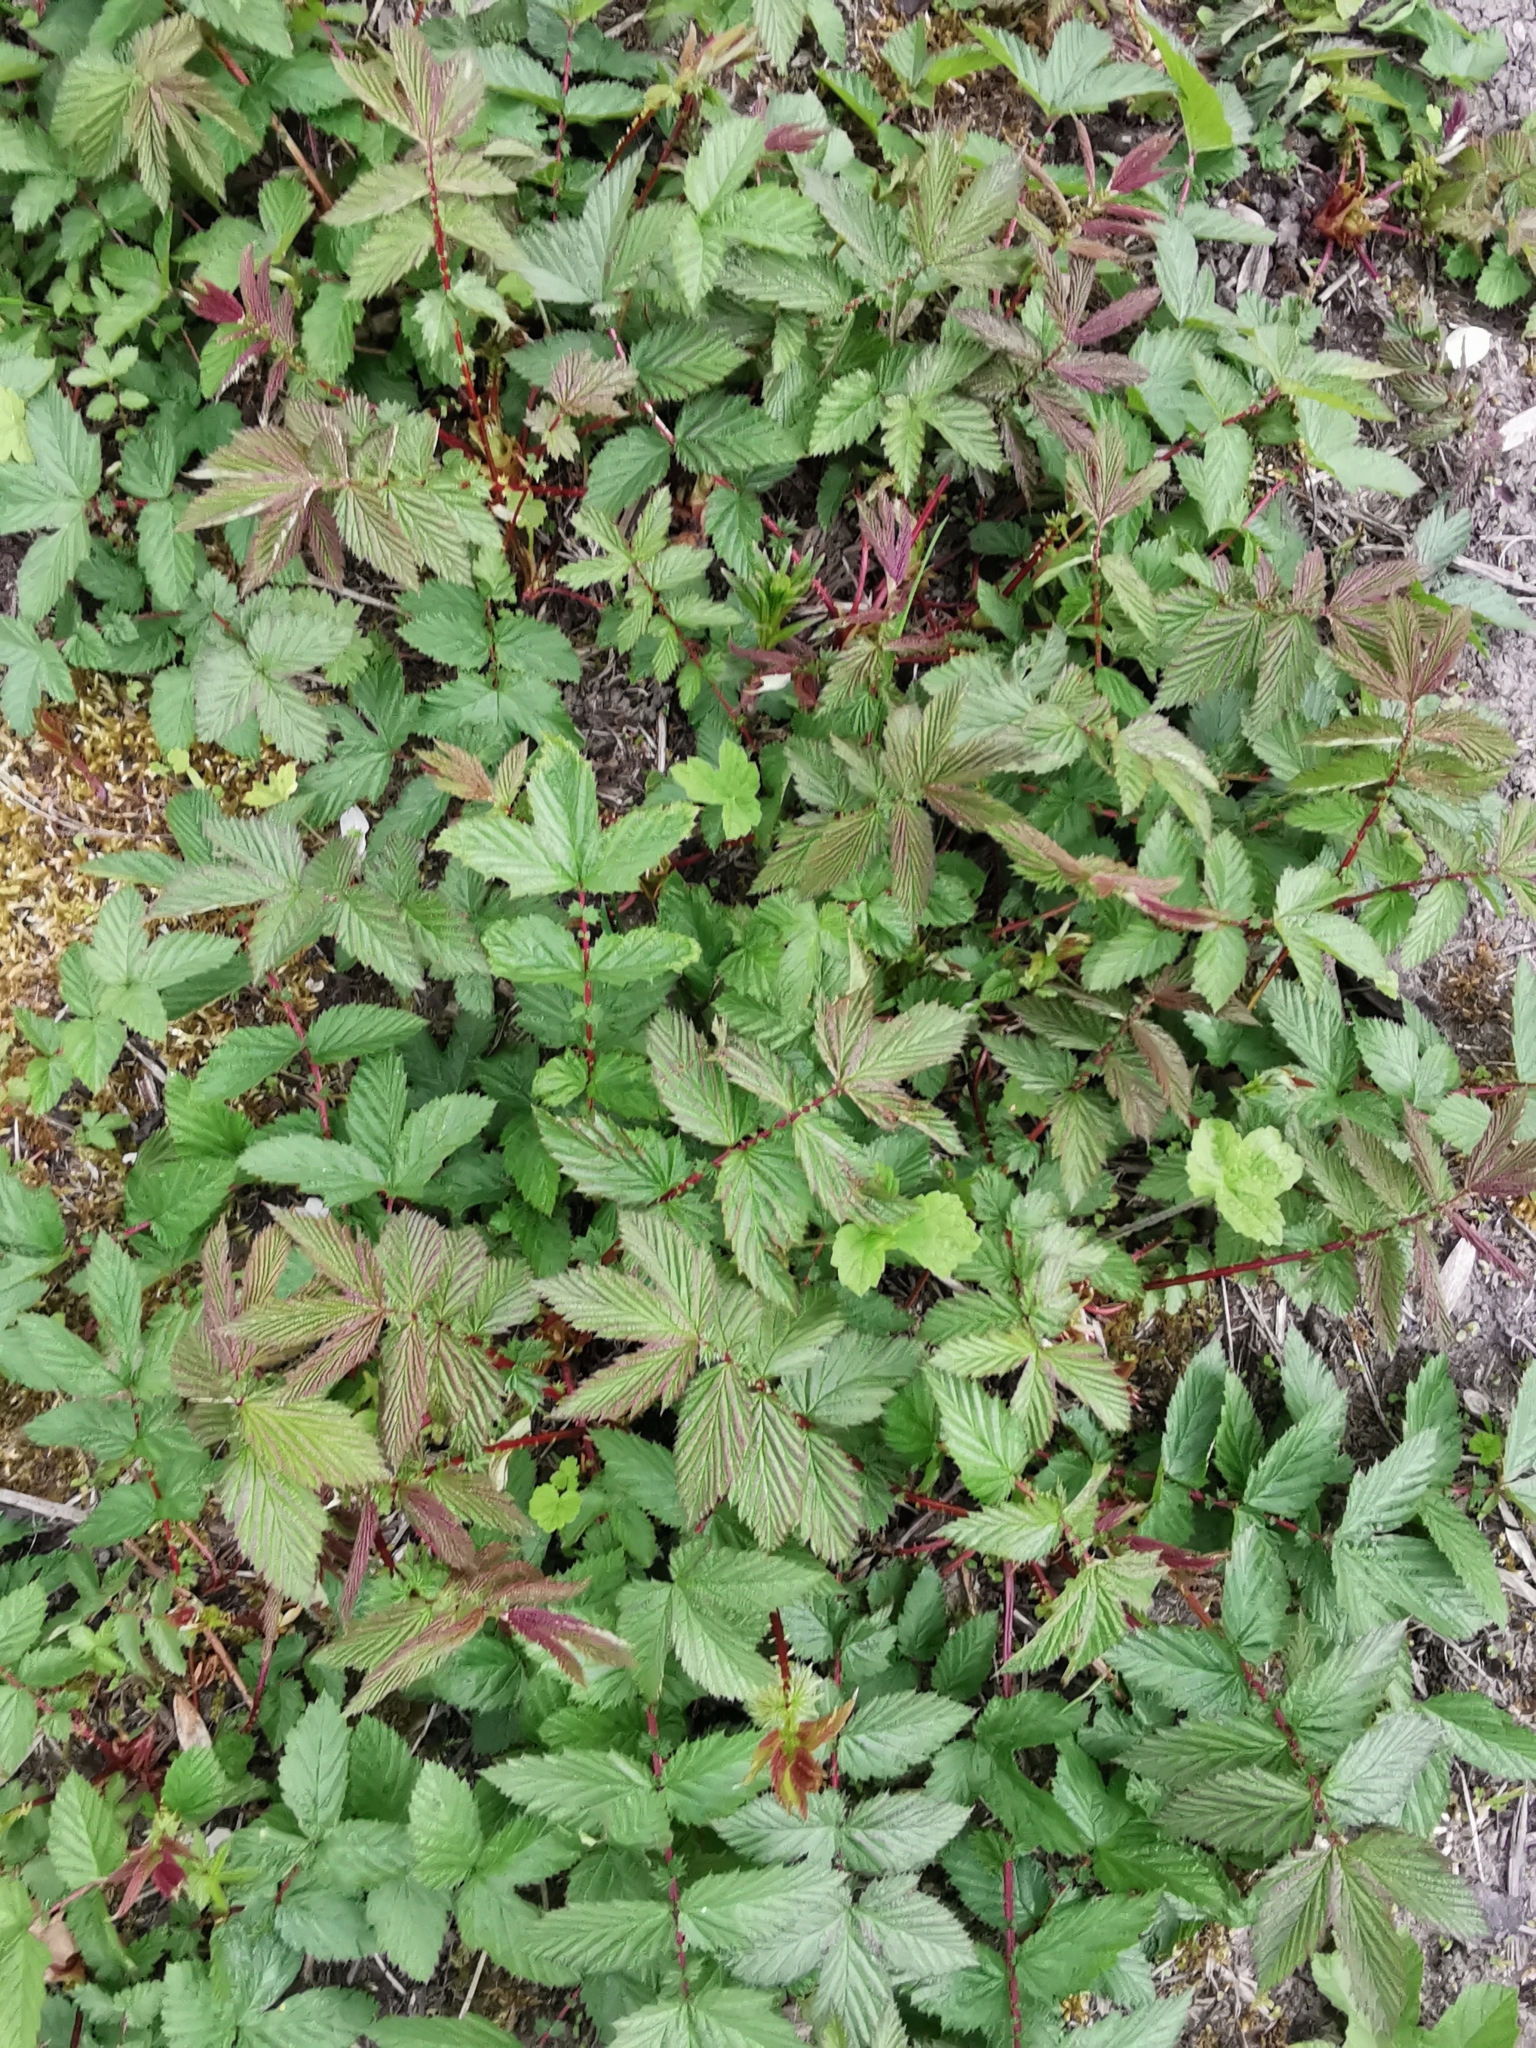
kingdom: Plantae
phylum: Tracheophyta
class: Magnoliopsida
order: Rosales
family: Rosaceae
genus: Filipendula
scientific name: Filipendula ulmaria
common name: Meadowsweet
